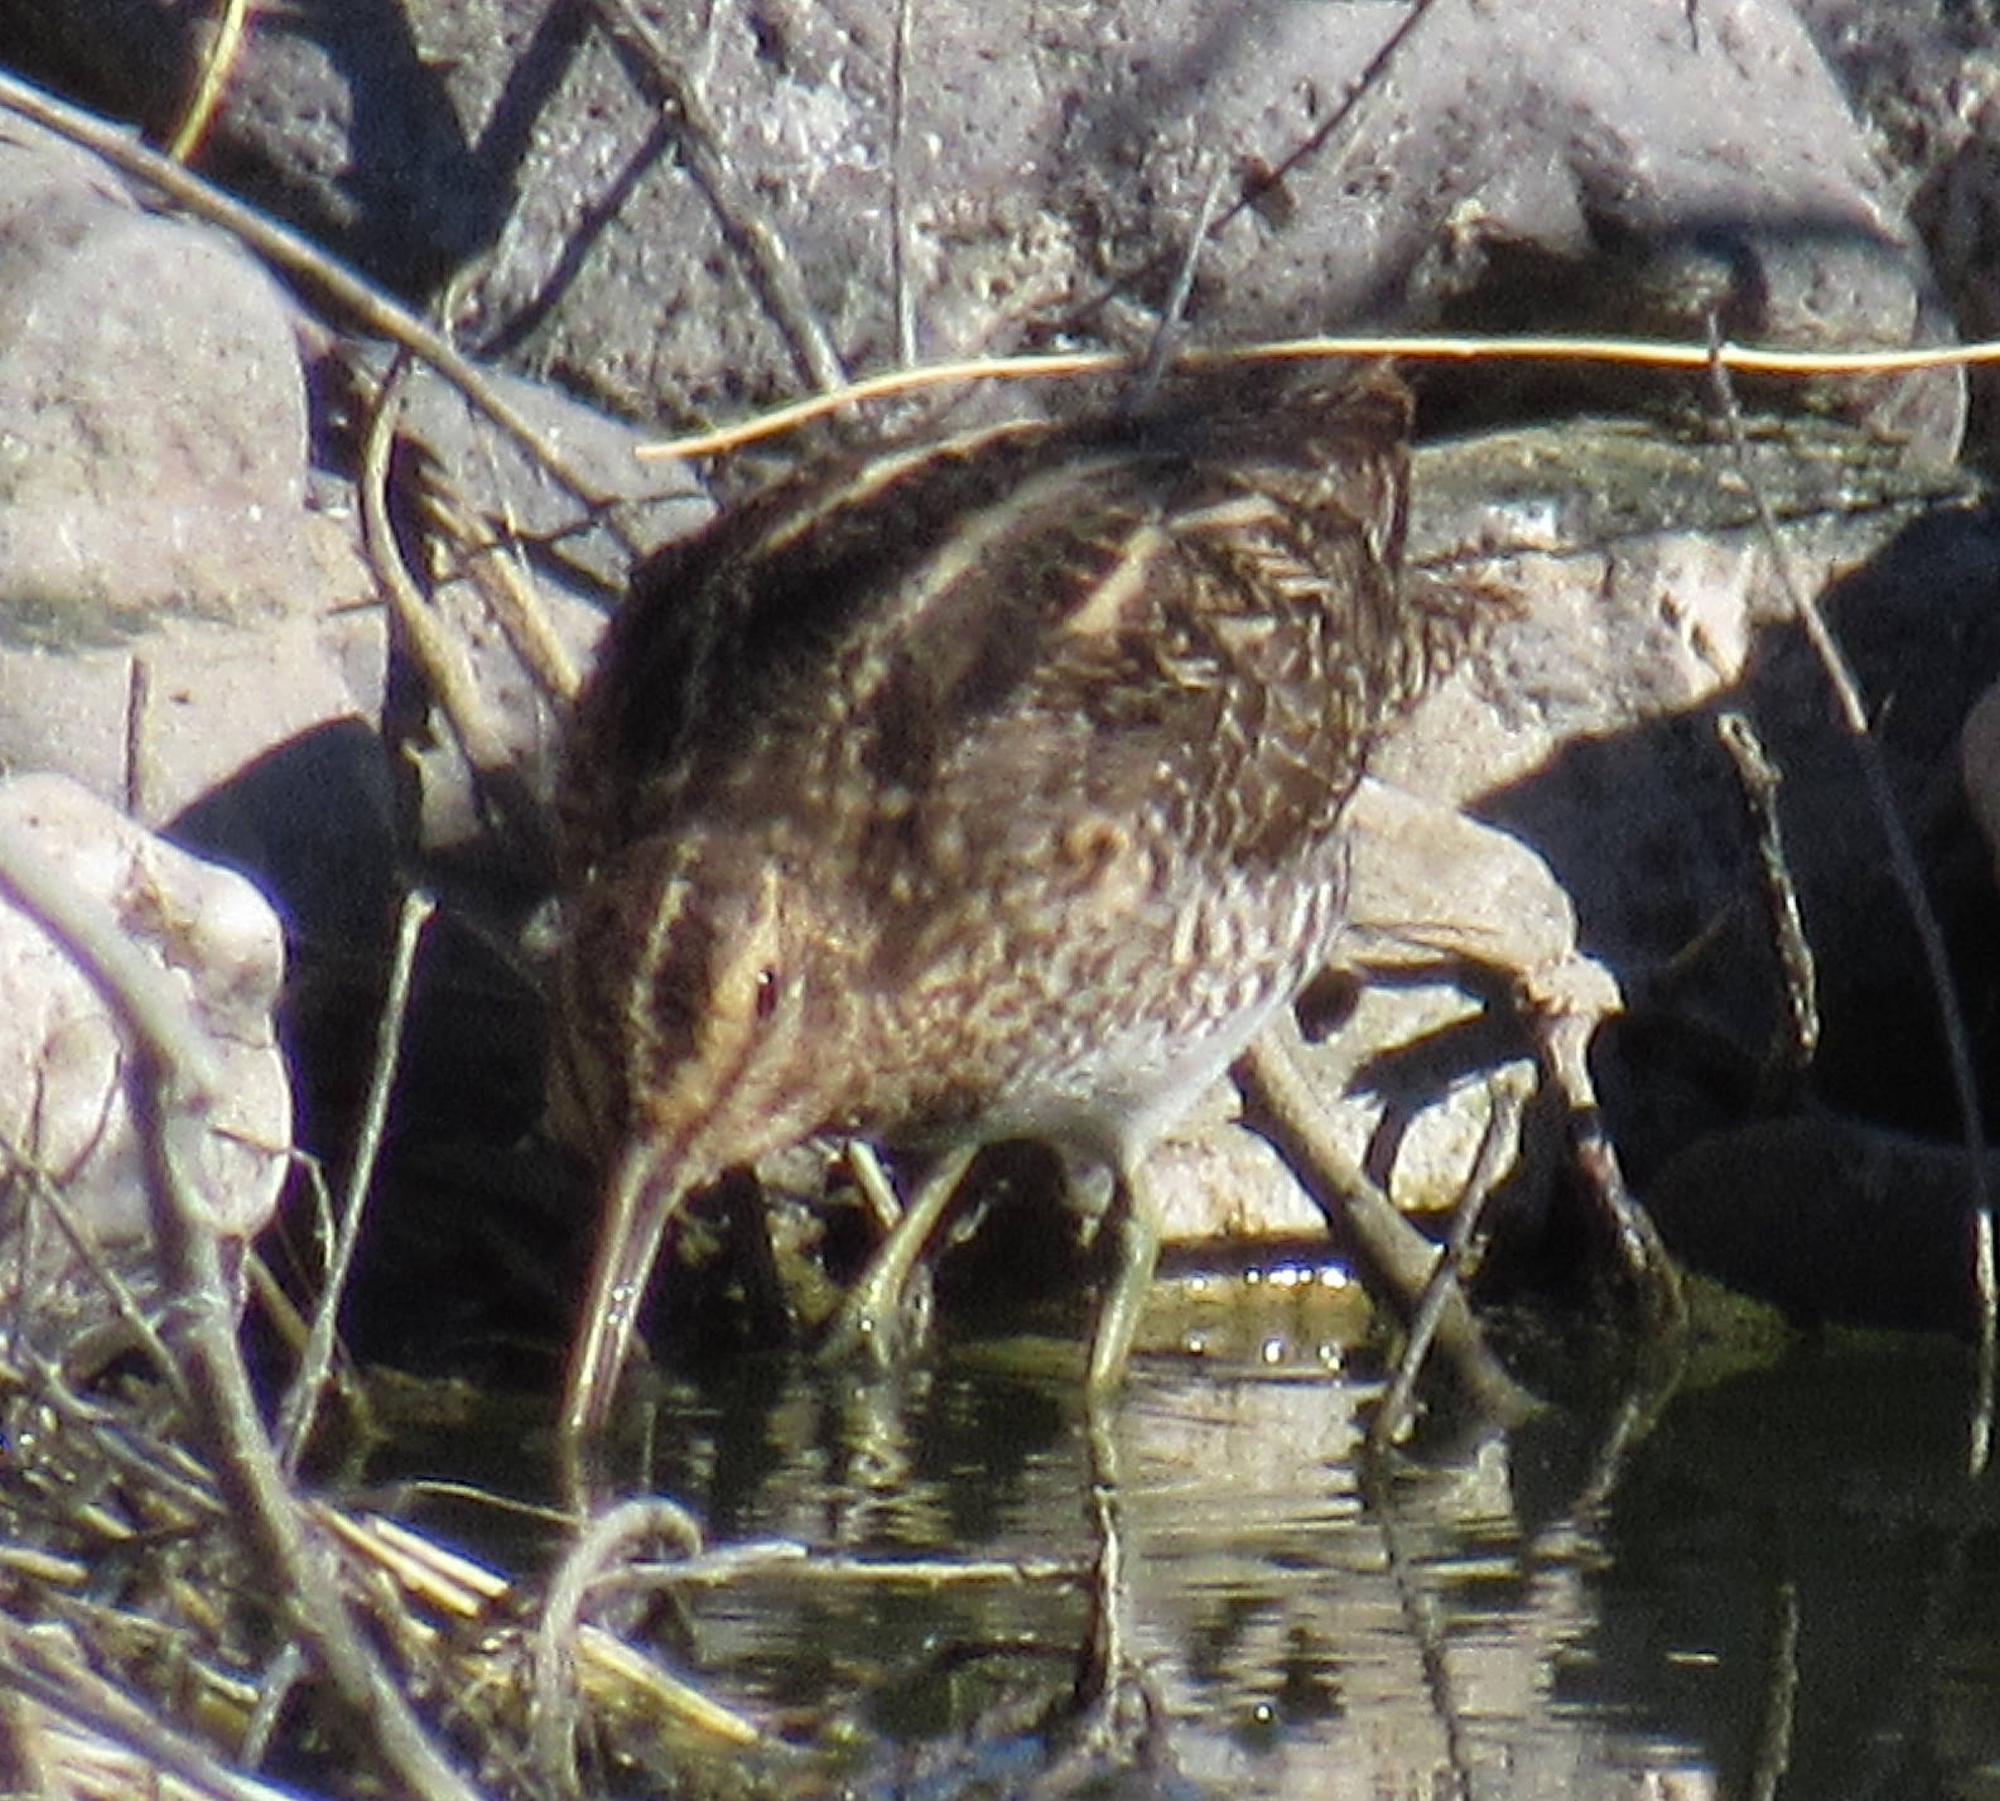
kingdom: Animalia
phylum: Chordata
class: Aves
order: Charadriiformes
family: Scolopacidae
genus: Gallinago
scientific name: Gallinago delicata
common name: Wilson's snipe
